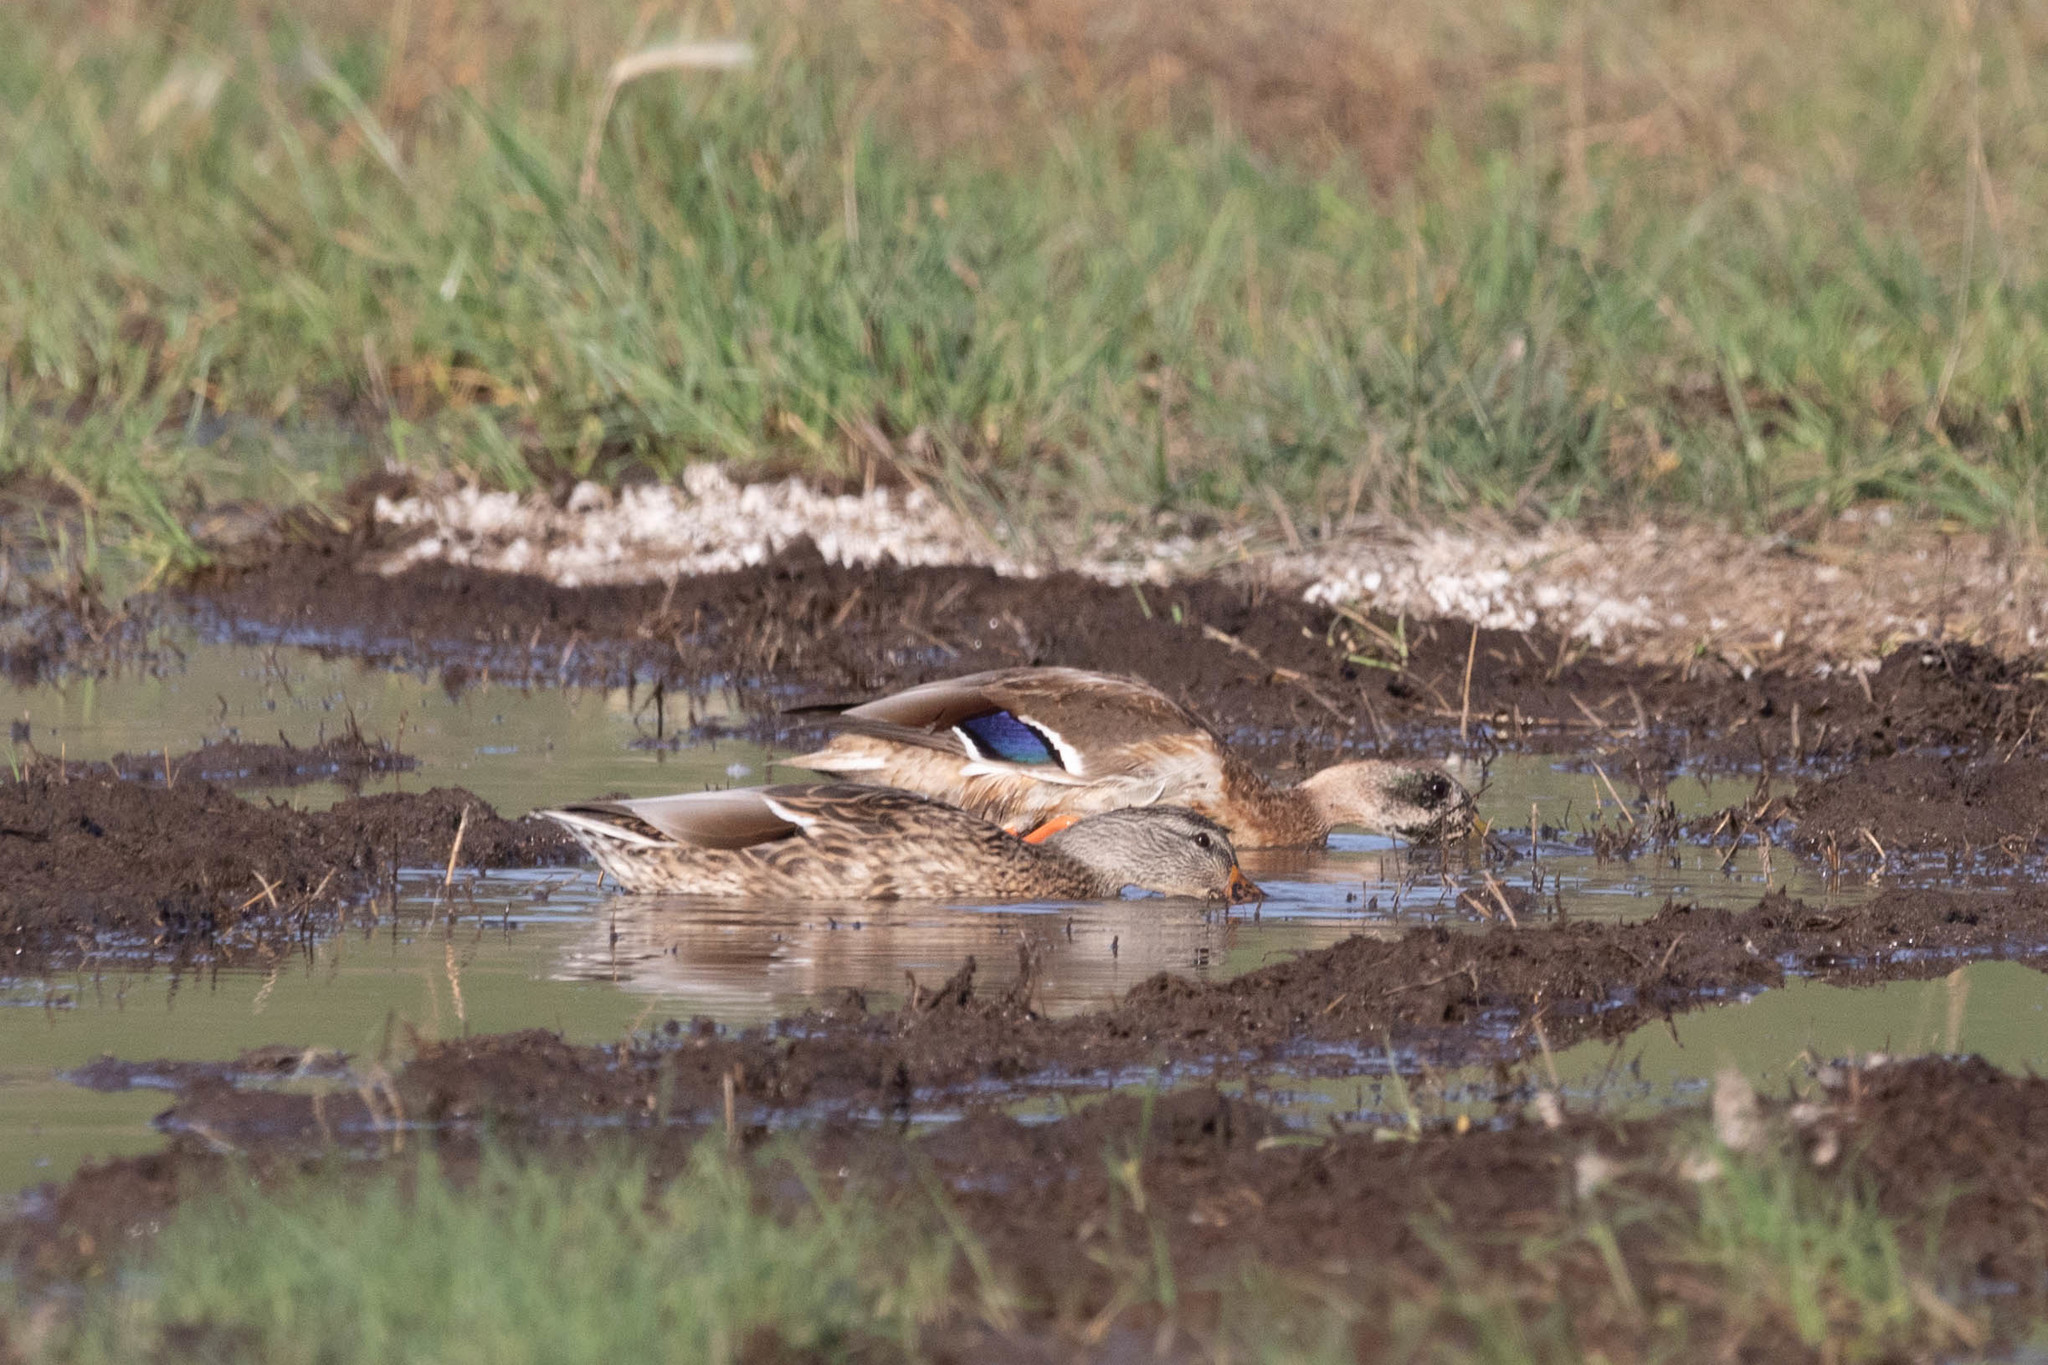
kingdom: Animalia
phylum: Chordata
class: Aves
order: Anseriformes
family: Anatidae
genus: Anas
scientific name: Anas platyrhynchos
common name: Mallard
